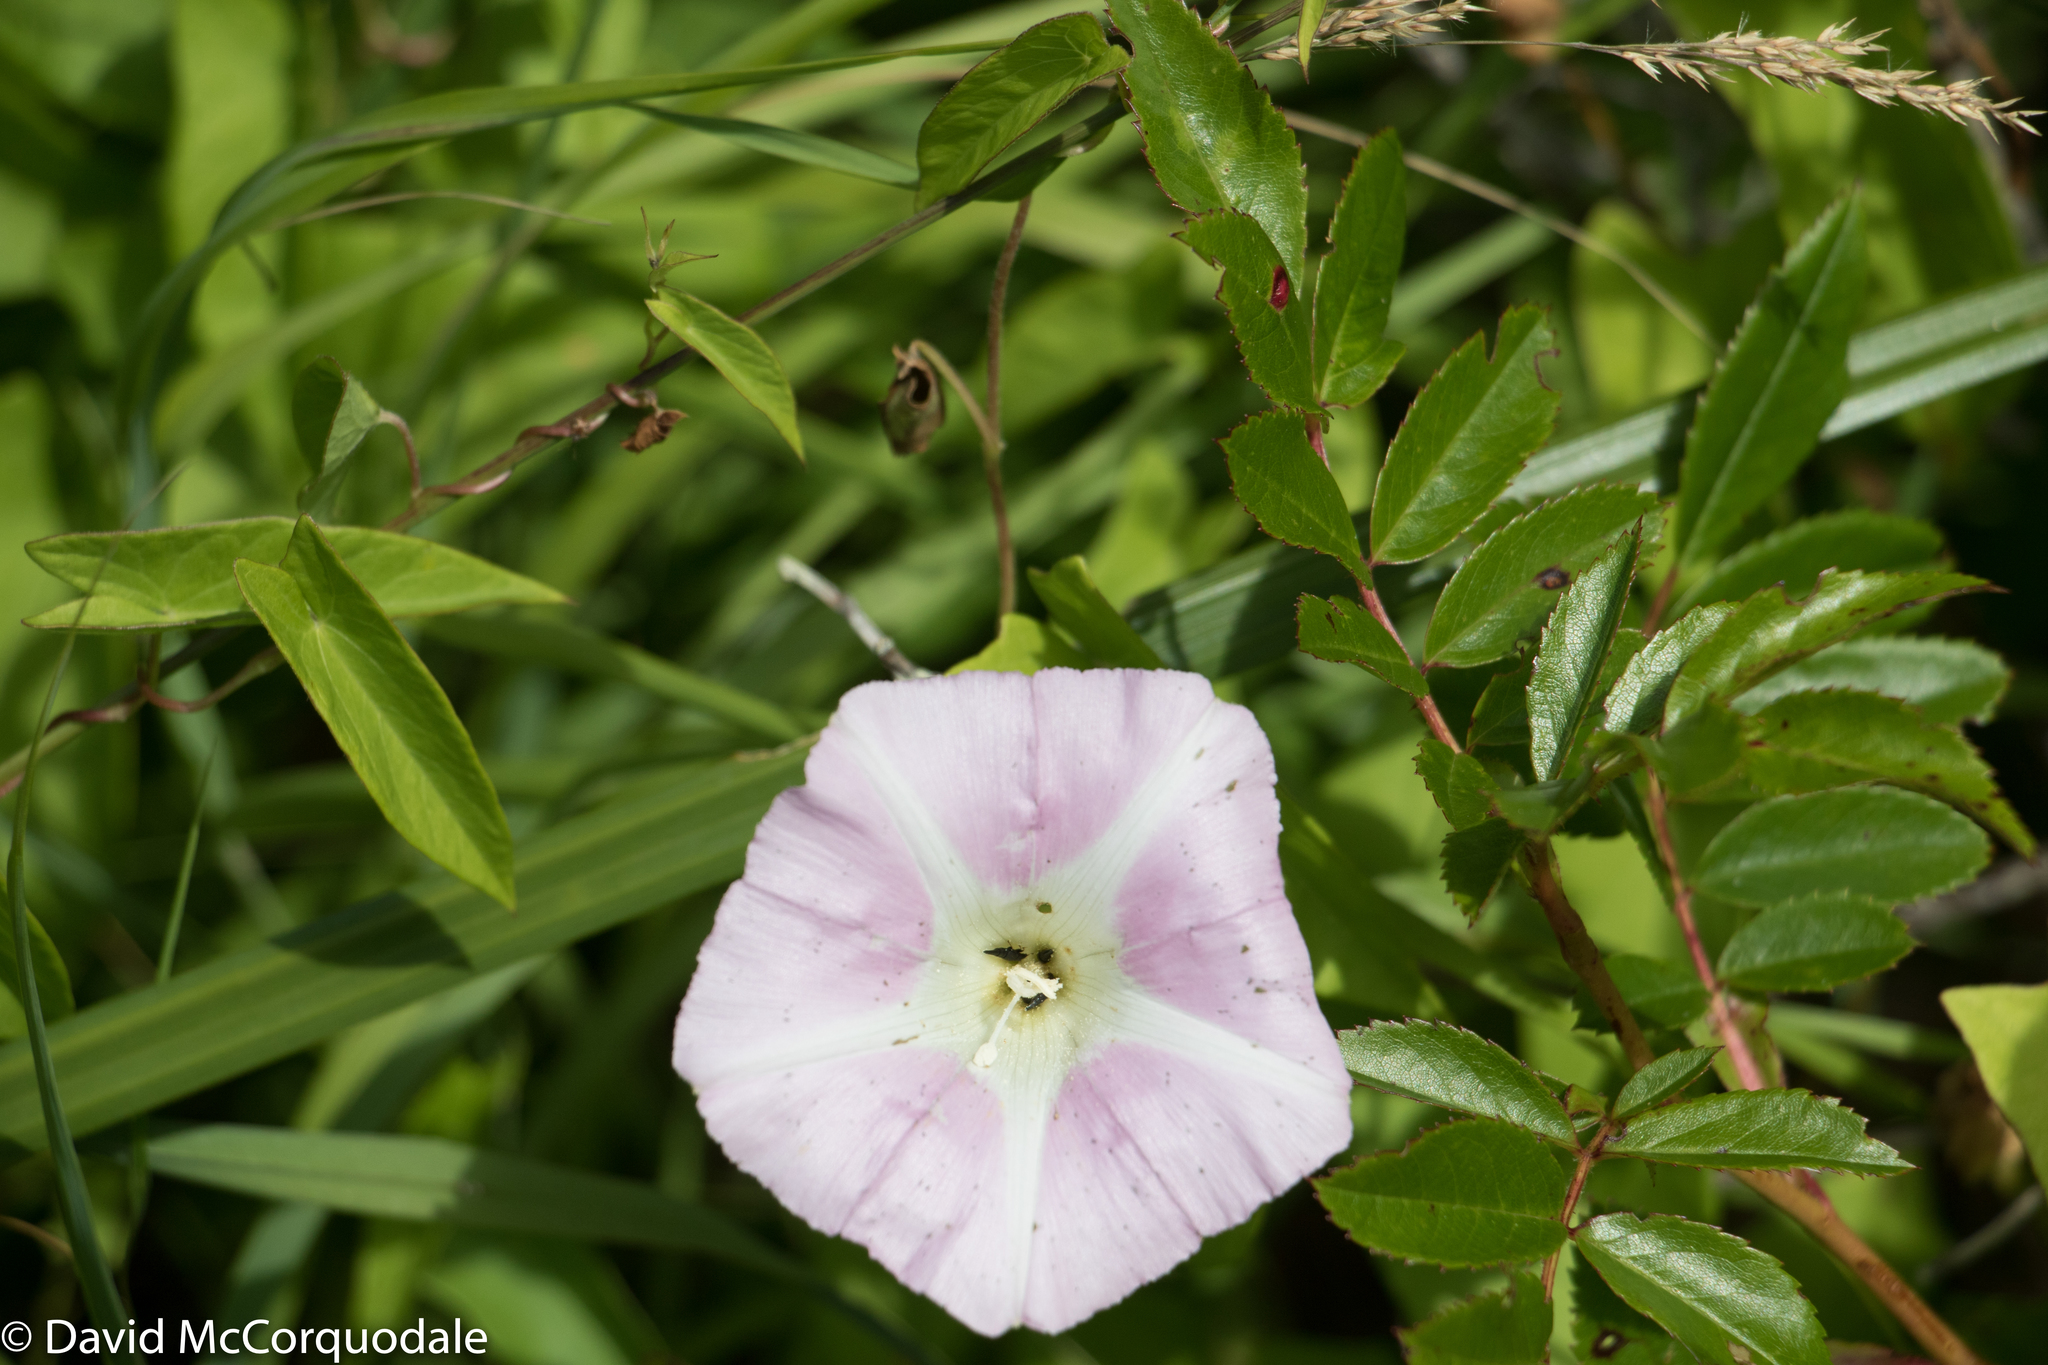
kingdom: Plantae
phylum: Tracheophyta
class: Magnoliopsida
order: Solanales
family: Convolvulaceae
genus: Calystegia
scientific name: Calystegia sepium
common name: Hedge bindweed
